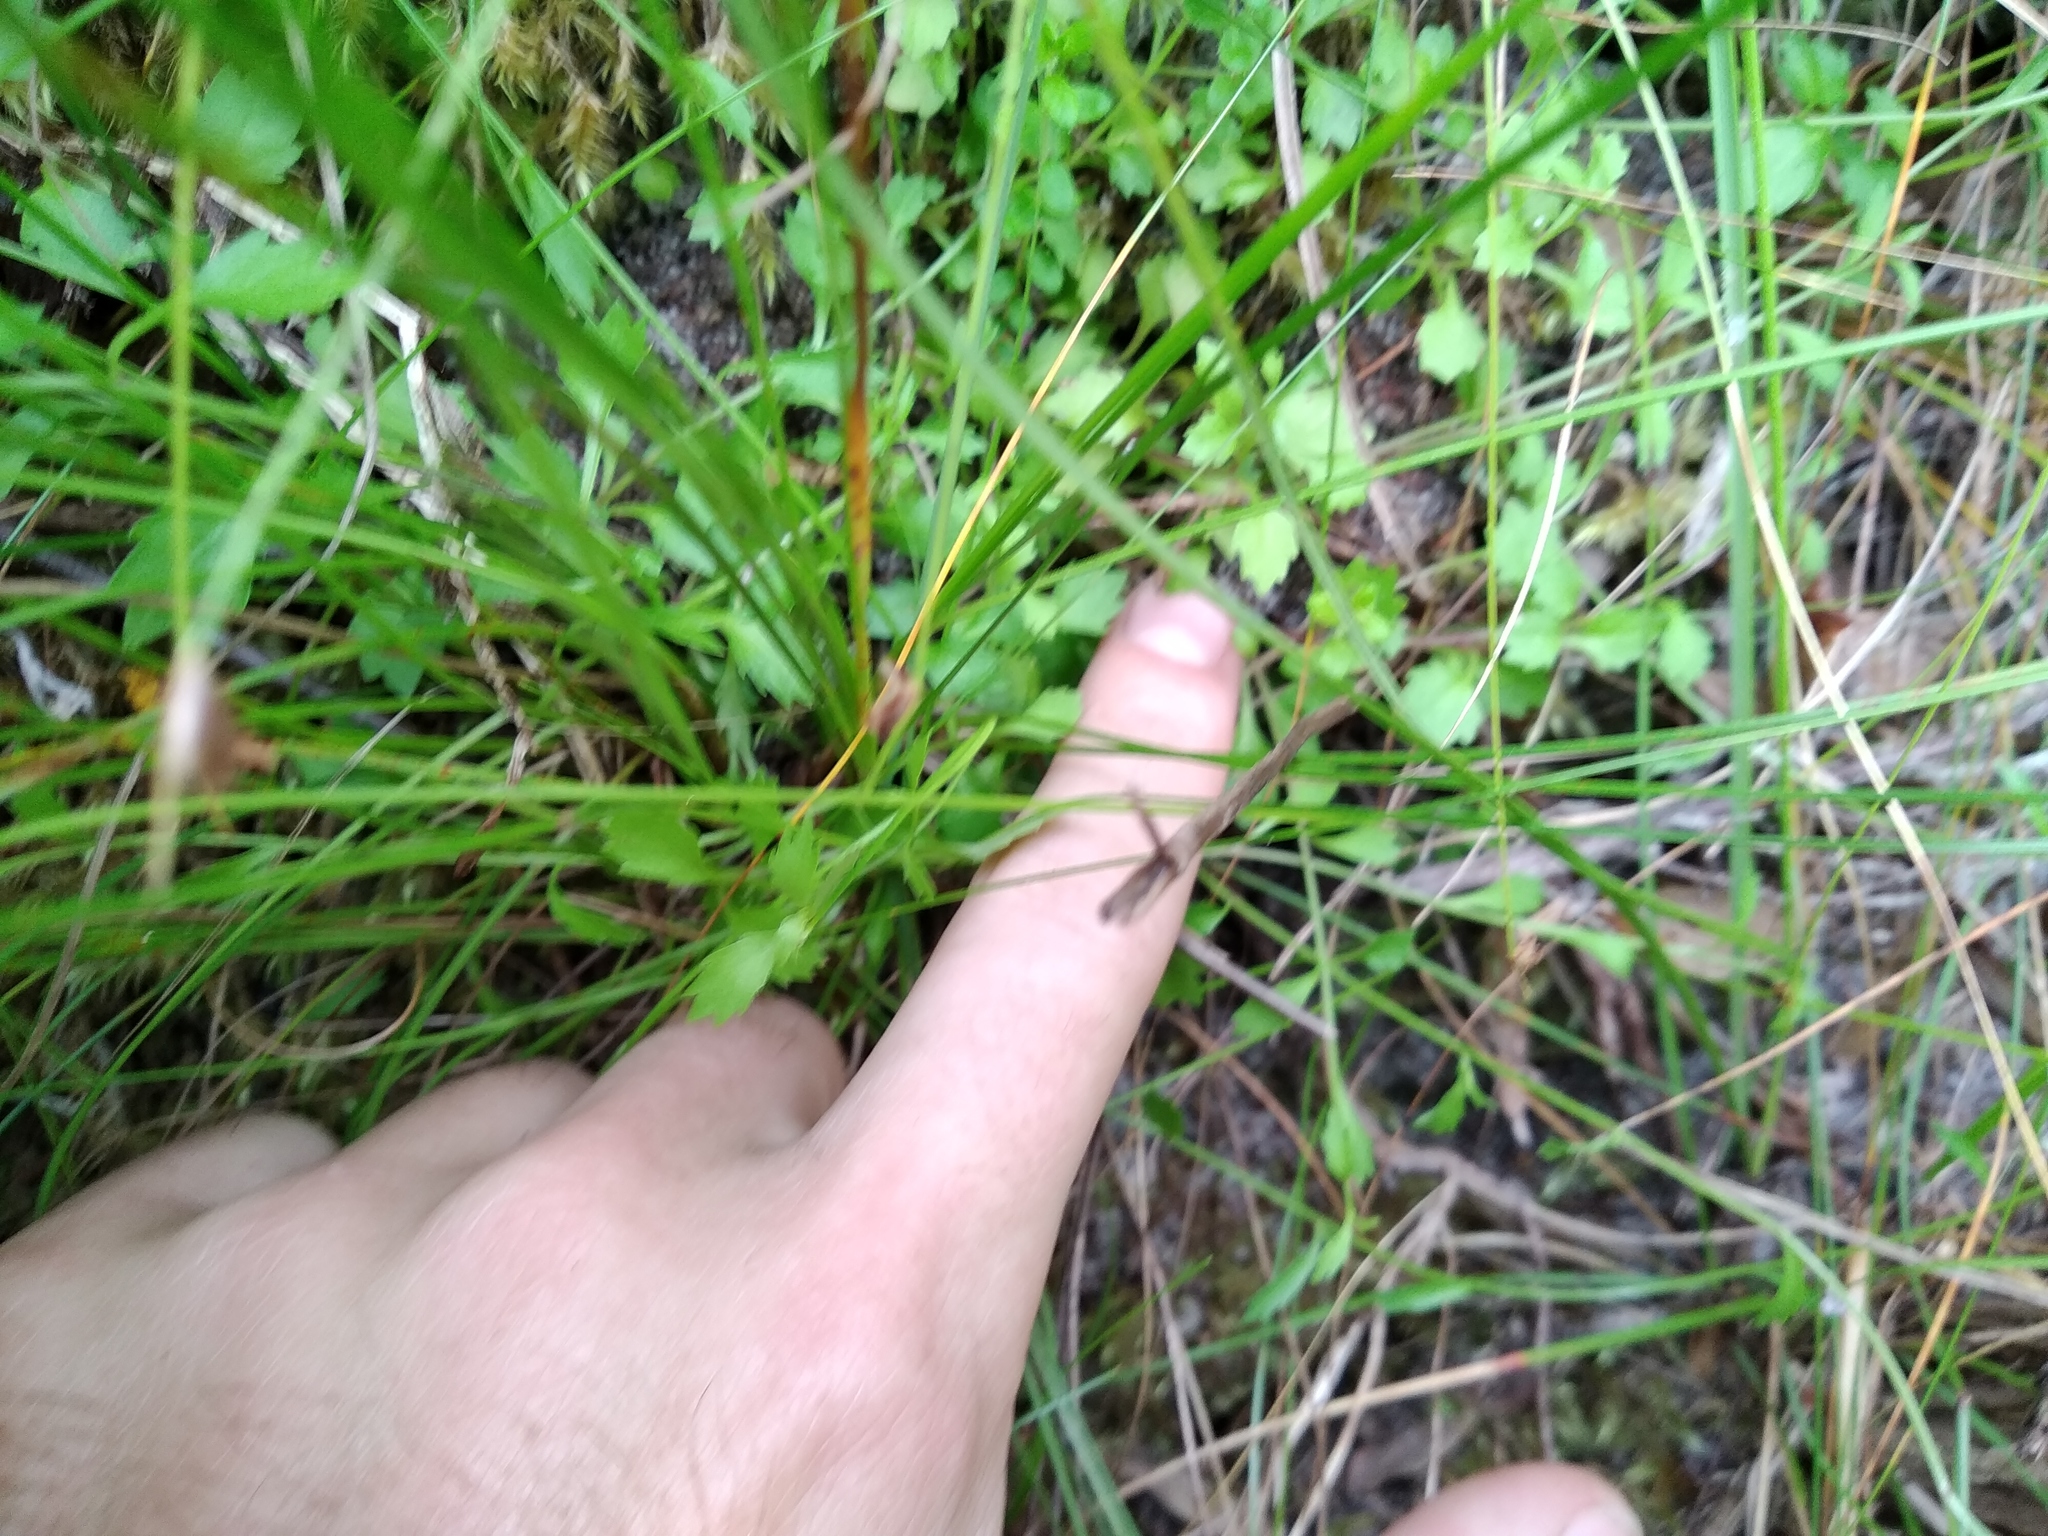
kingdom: Plantae
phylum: Tracheophyta
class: Magnoliopsida
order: Asterales
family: Campanulaceae
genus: Lobelia
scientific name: Lobelia eckloniana
